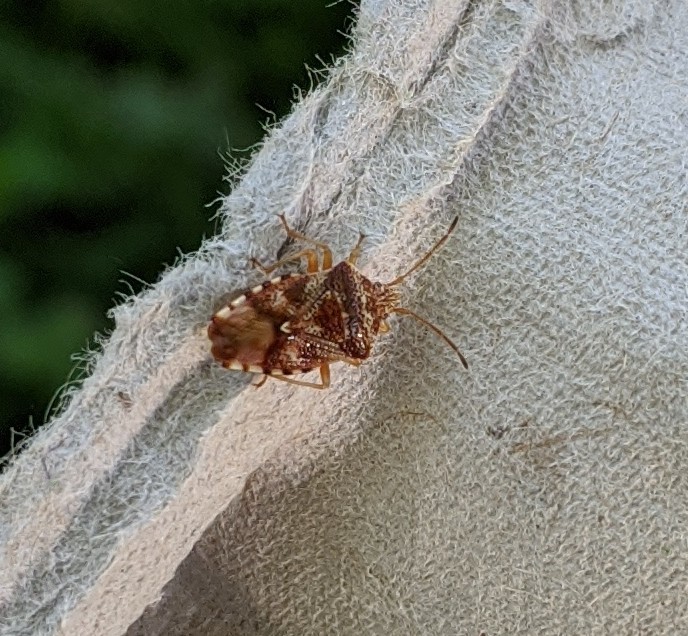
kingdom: Animalia
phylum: Arthropoda
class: Insecta
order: Hemiptera
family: Acanthosomatidae
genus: Elasmucha
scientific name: Elasmucha lateralis
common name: Shield bug
